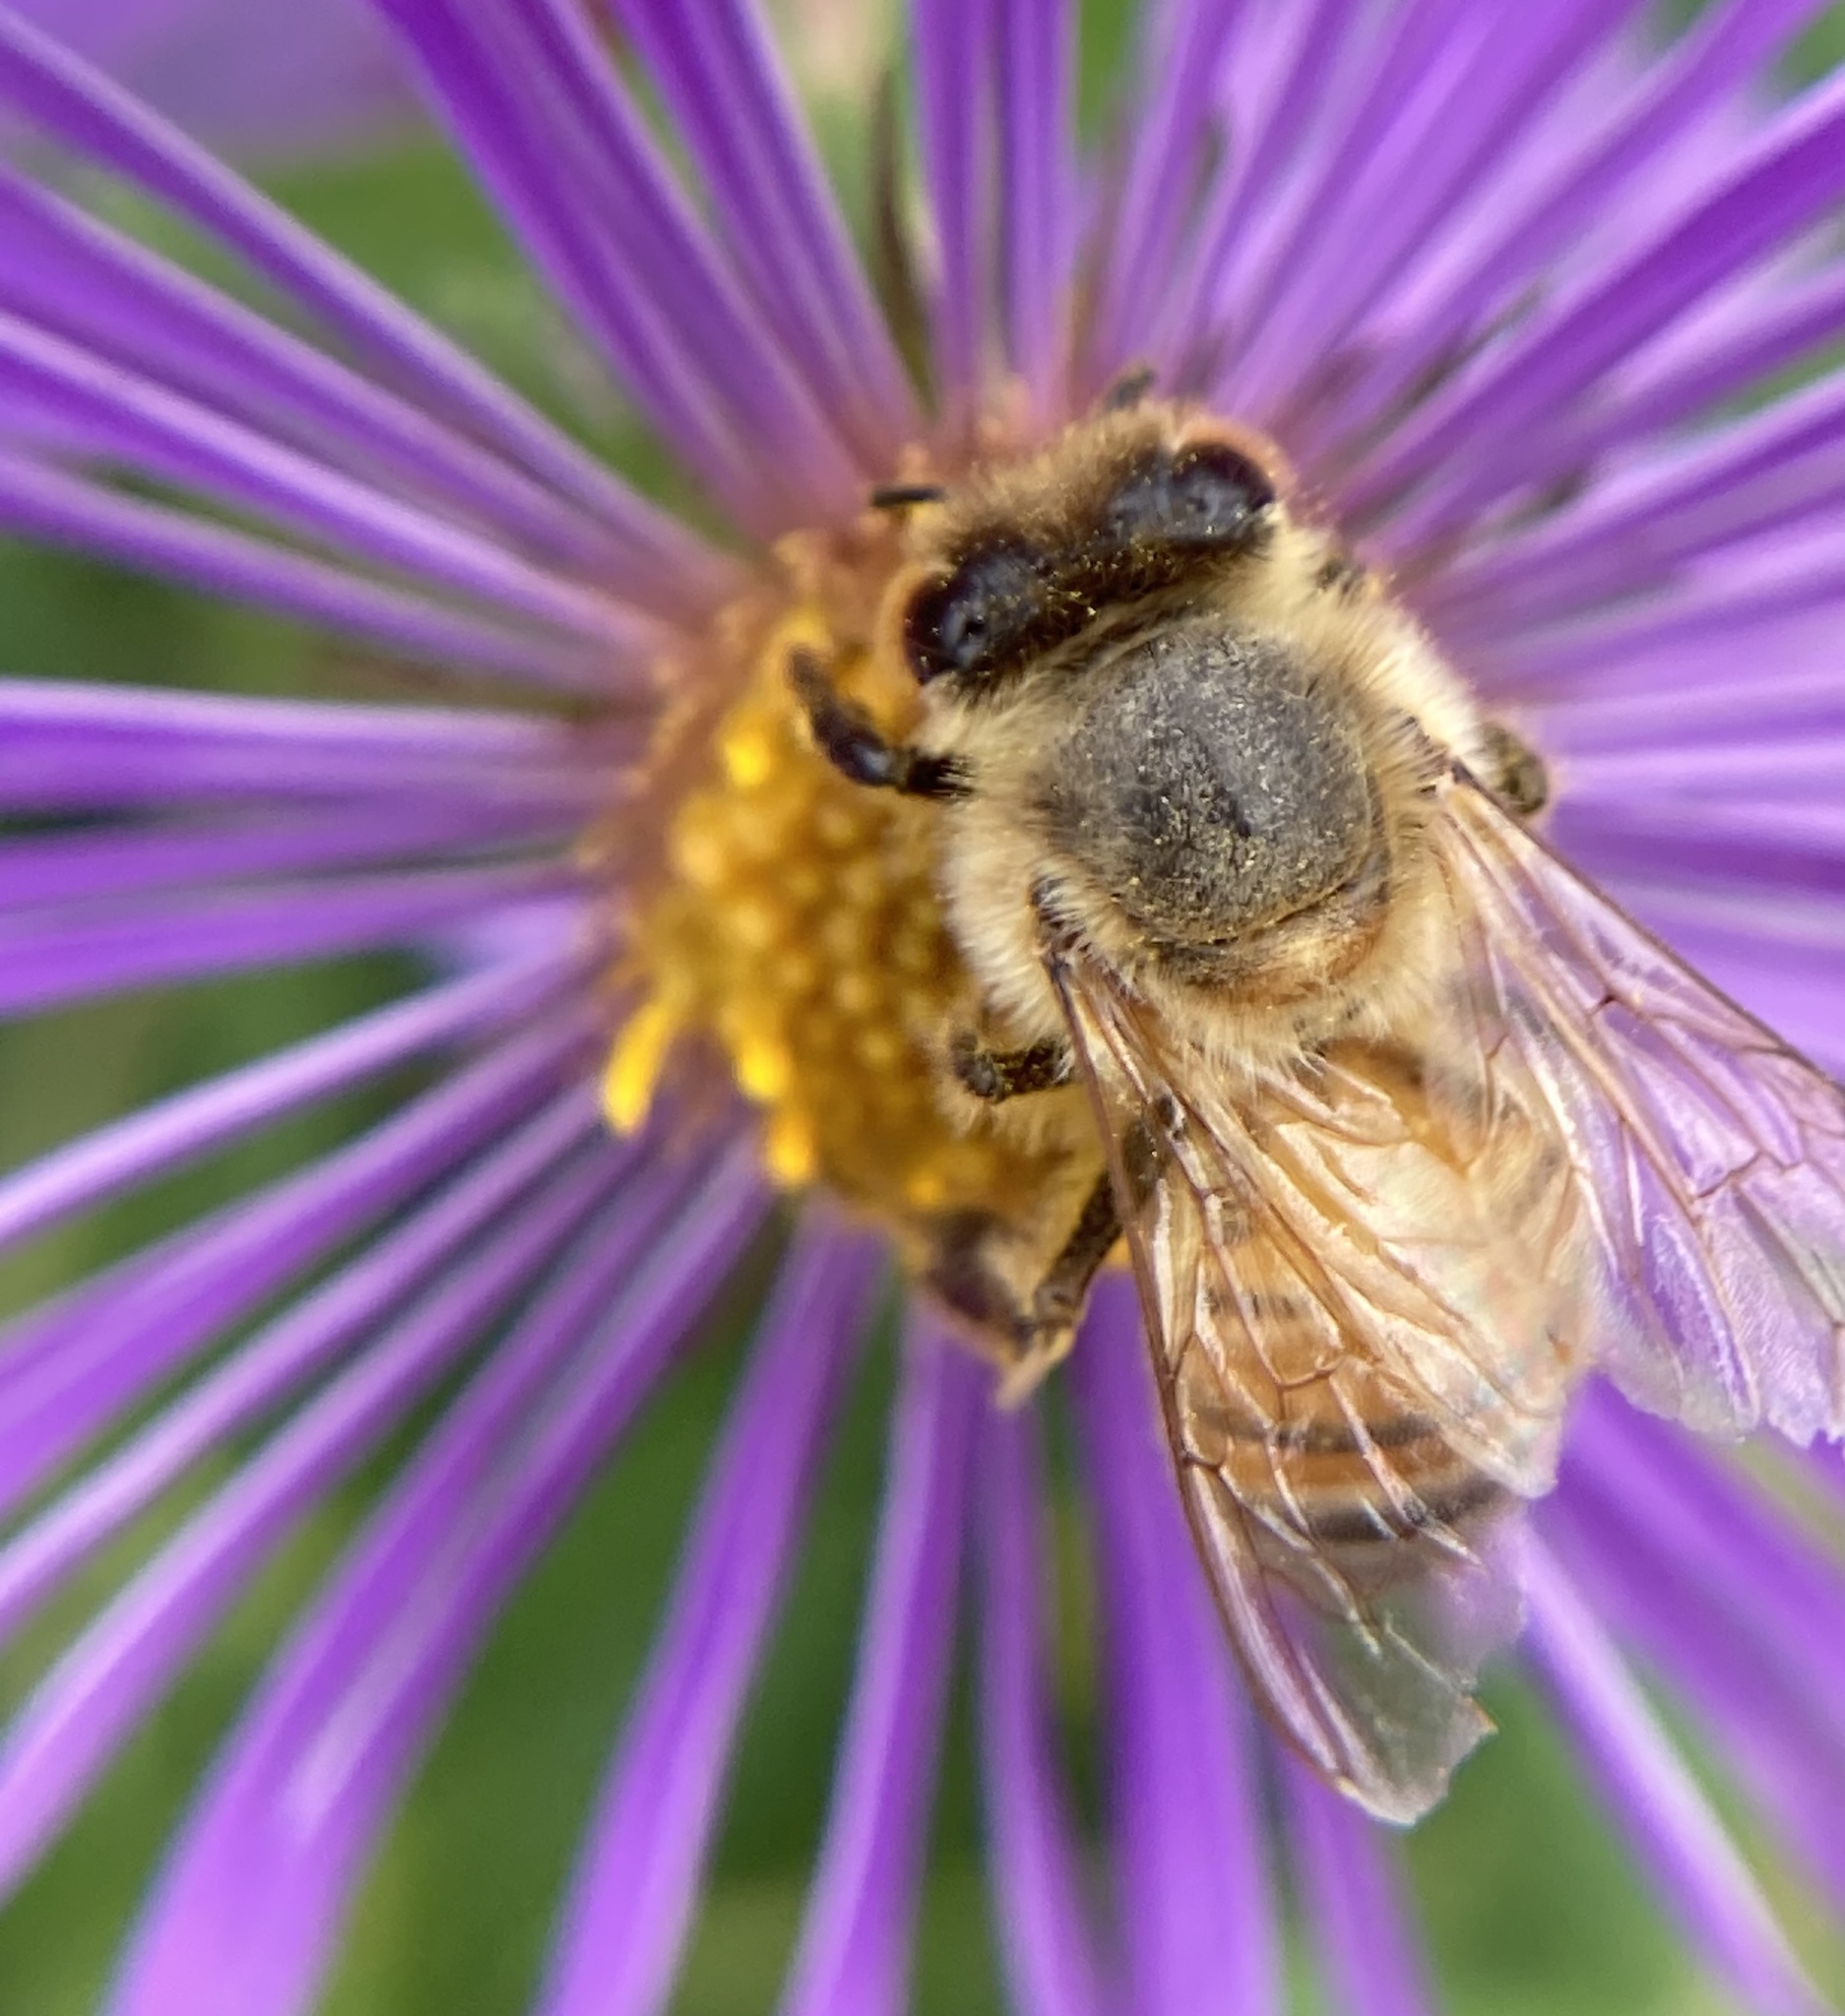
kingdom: Animalia
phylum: Arthropoda
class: Insecta
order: Hymenoptera
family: Apidae
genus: Apis
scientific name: Apis mellifera
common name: Honey bee
